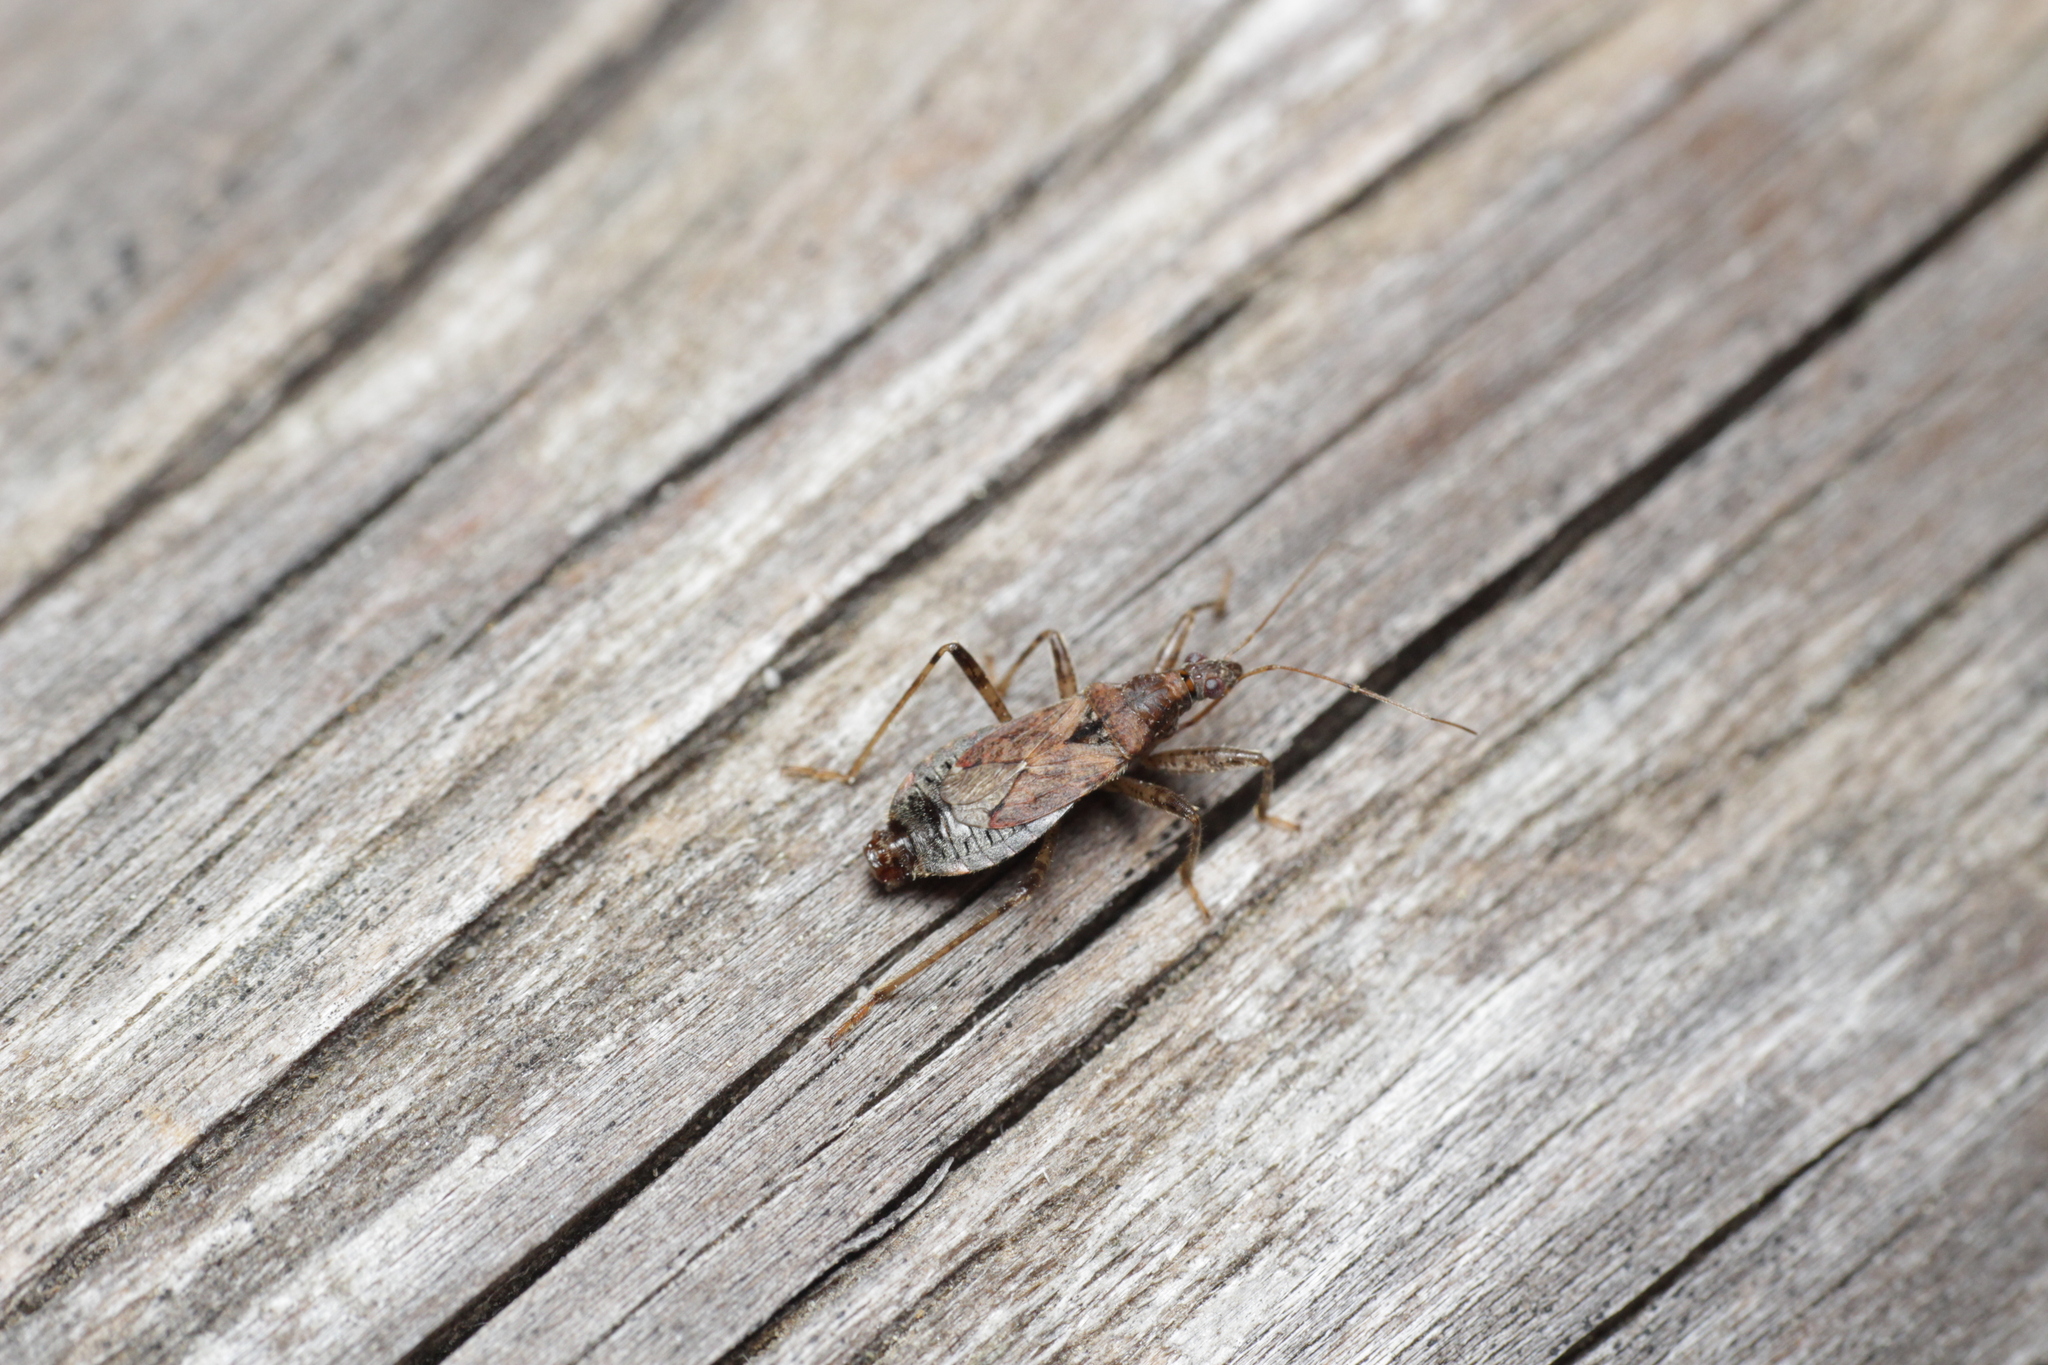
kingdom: Animalia
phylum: Arthropoda
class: Insecta
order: Hemiptera
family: Nabidae
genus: Himacerus
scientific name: Himacerus mirmicoides
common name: Ant damsel bug
